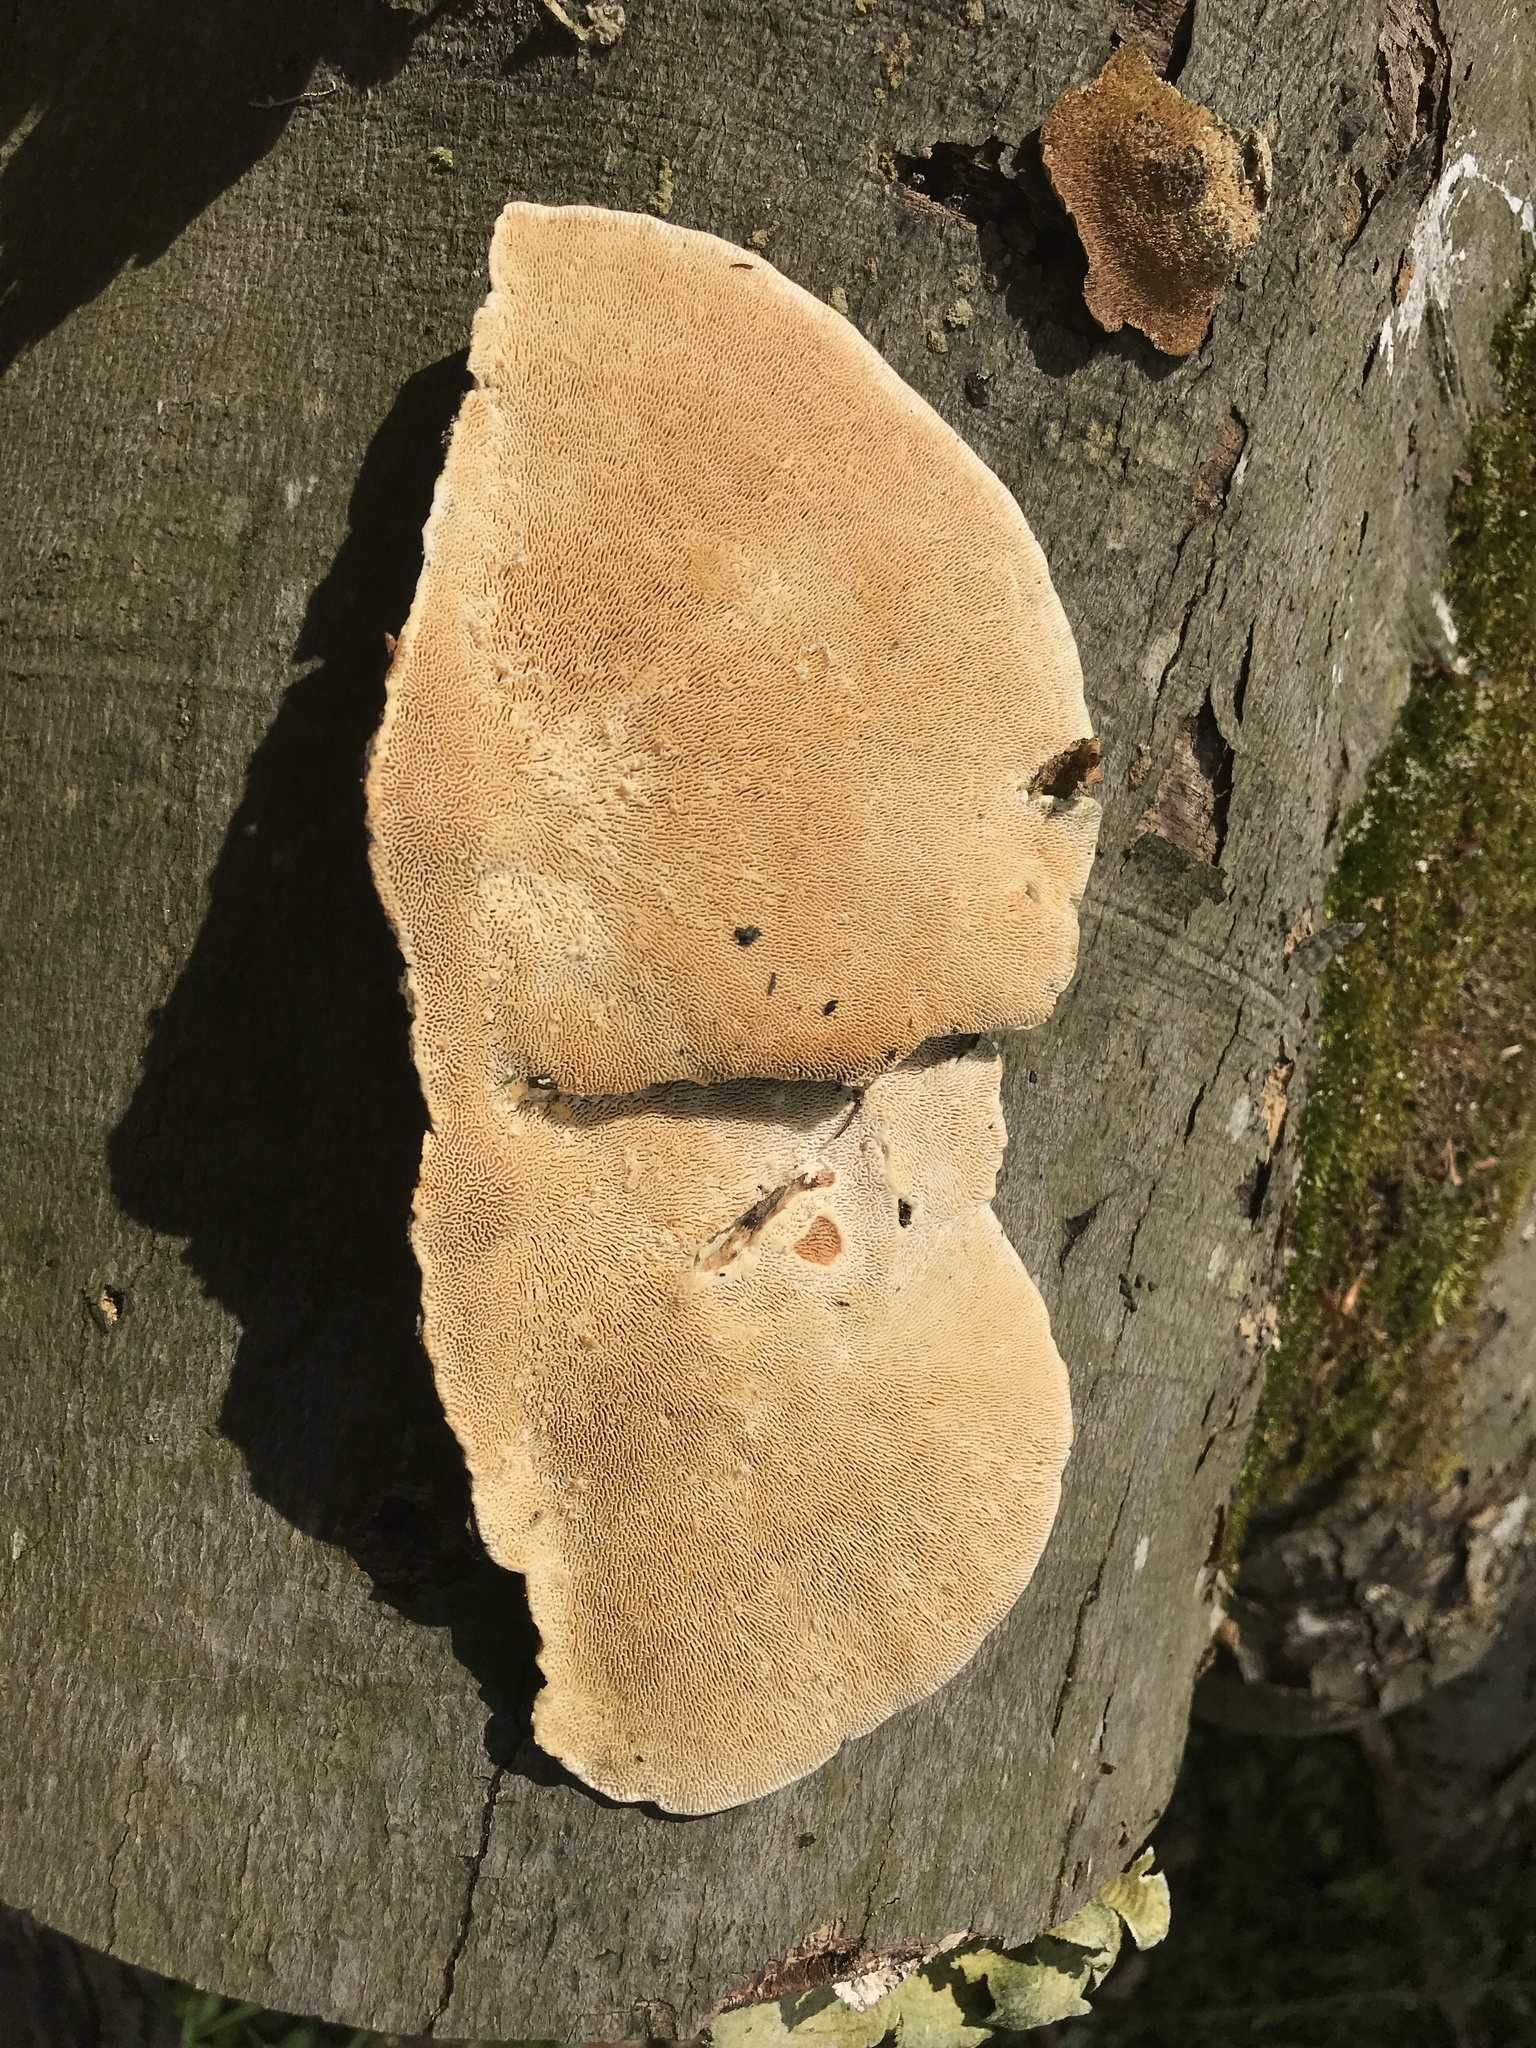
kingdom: Fungi
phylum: Basidiomycota
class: Agaricomycetes
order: Polyporales
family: Polyporaceae
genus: Trametes
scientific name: Trametes gibbosa
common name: Lumpy bracket
